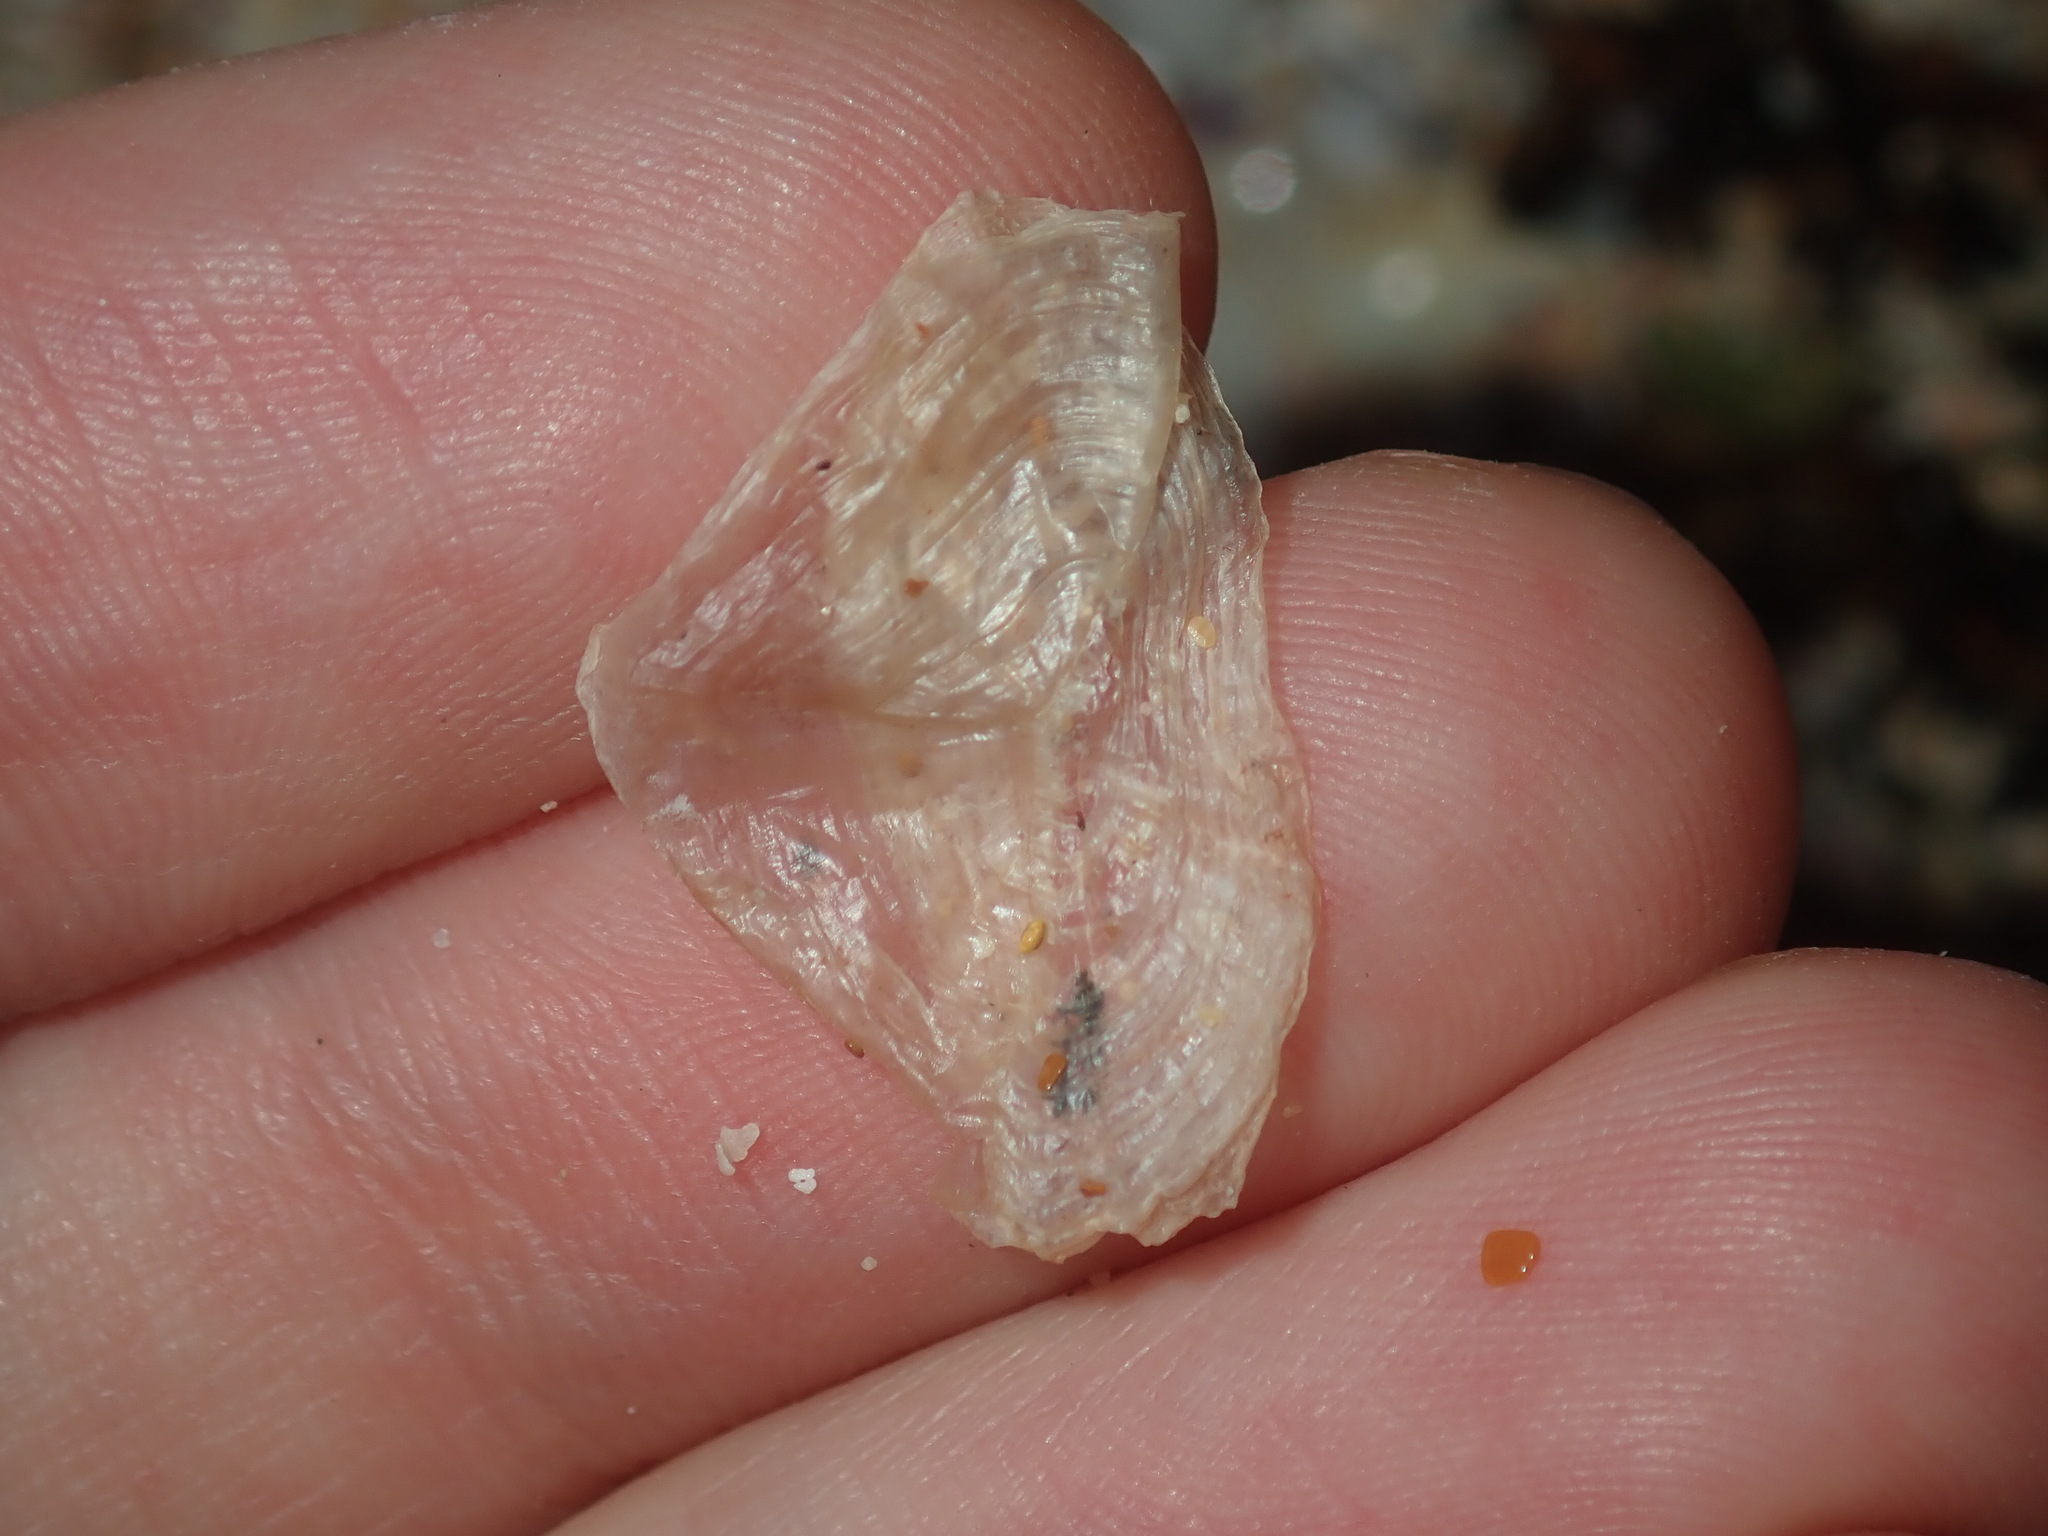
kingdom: Animalia
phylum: Cnidaria
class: Hydrozoa
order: Anthoathecata
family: Porpitidae
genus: Velella
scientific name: Velella velella
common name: By-the-wind-sailor
